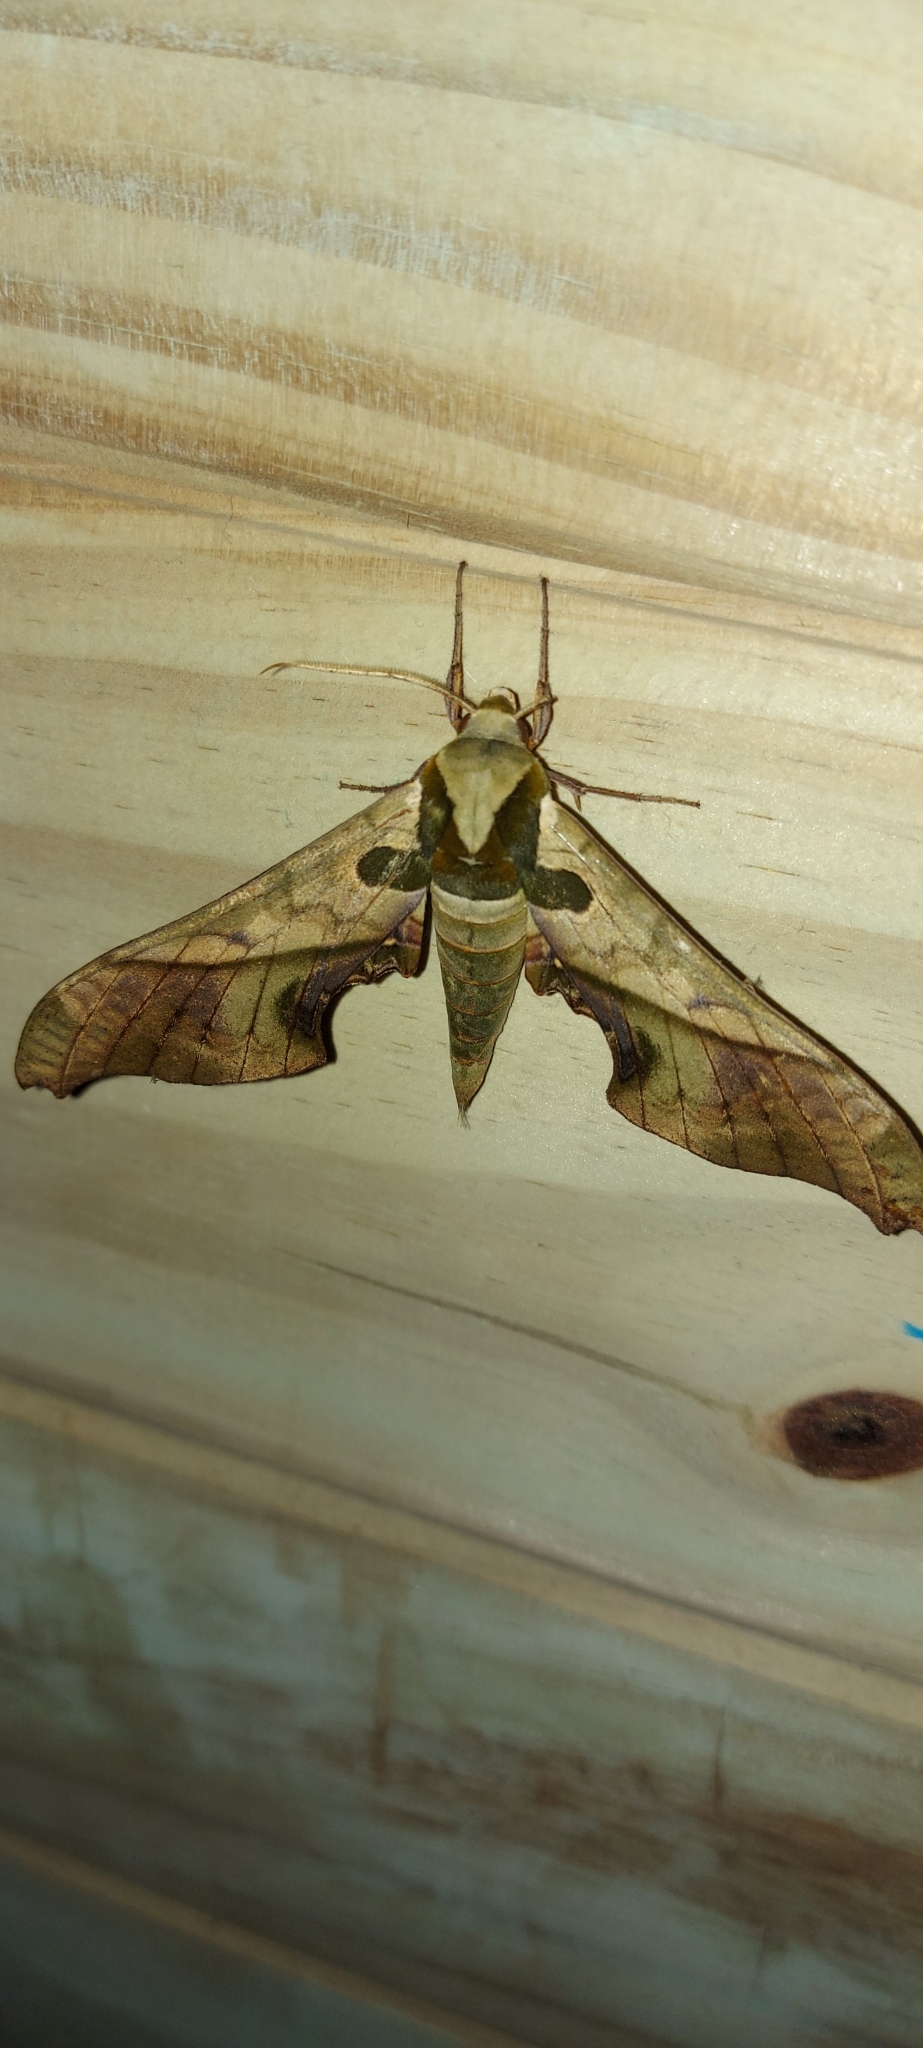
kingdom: Animalia
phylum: Arthropoda
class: Insecta
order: Lepidoptera
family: Sphingidae
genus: Adhemarius
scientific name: Adhemarius dariensis
